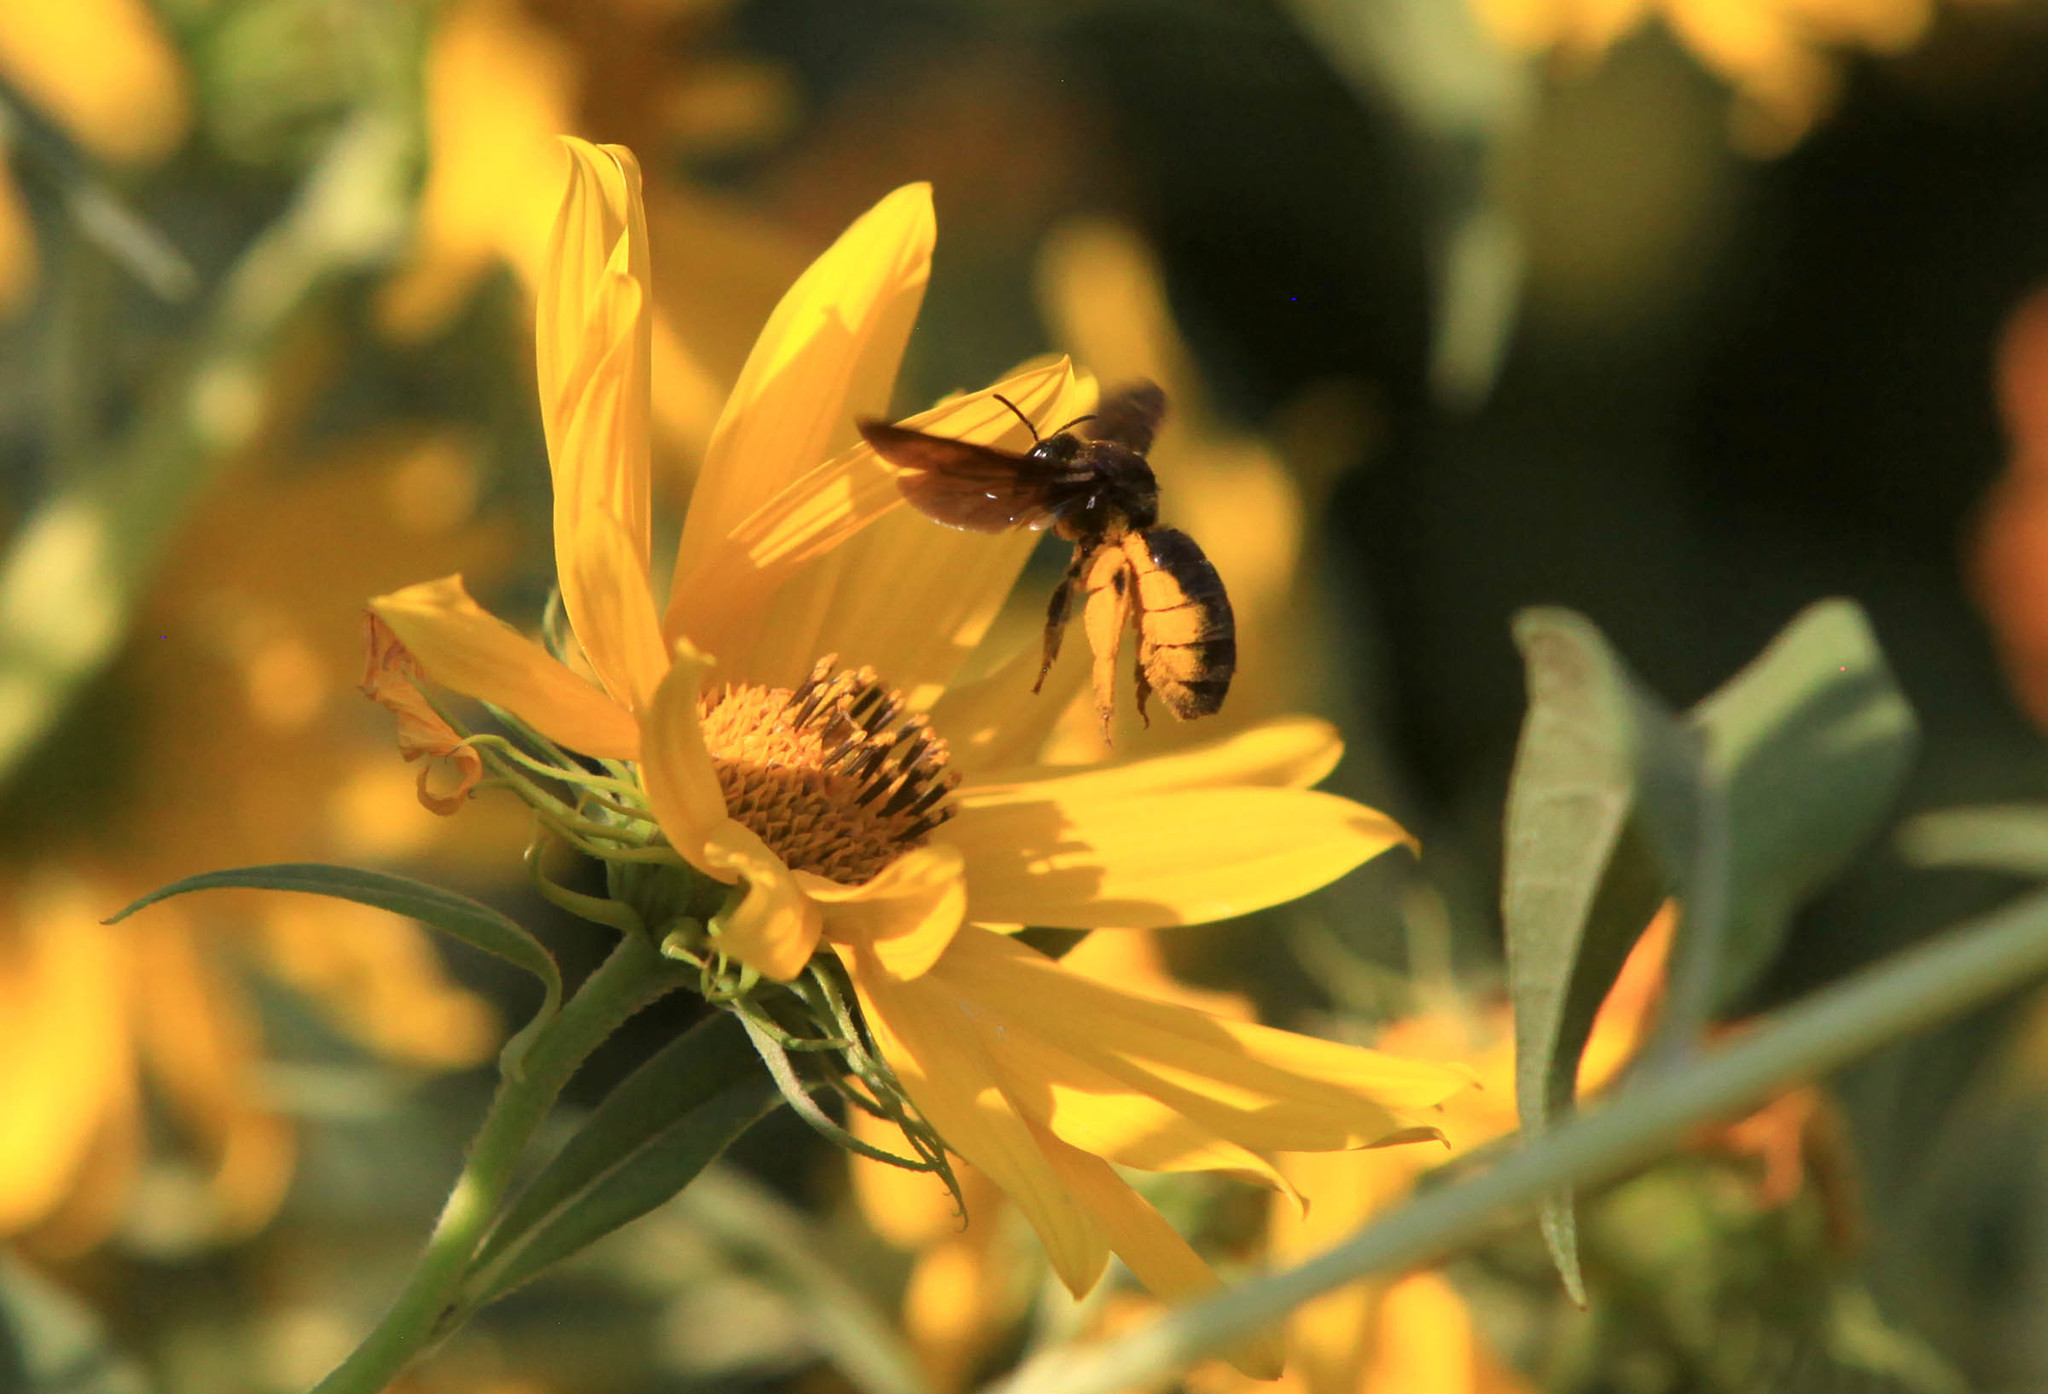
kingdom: Animalia
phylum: Arthropoda
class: Insecta
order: Hymenoptera
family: Halictidae
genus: Dieunomia
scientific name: Dieunomia heteropoda
